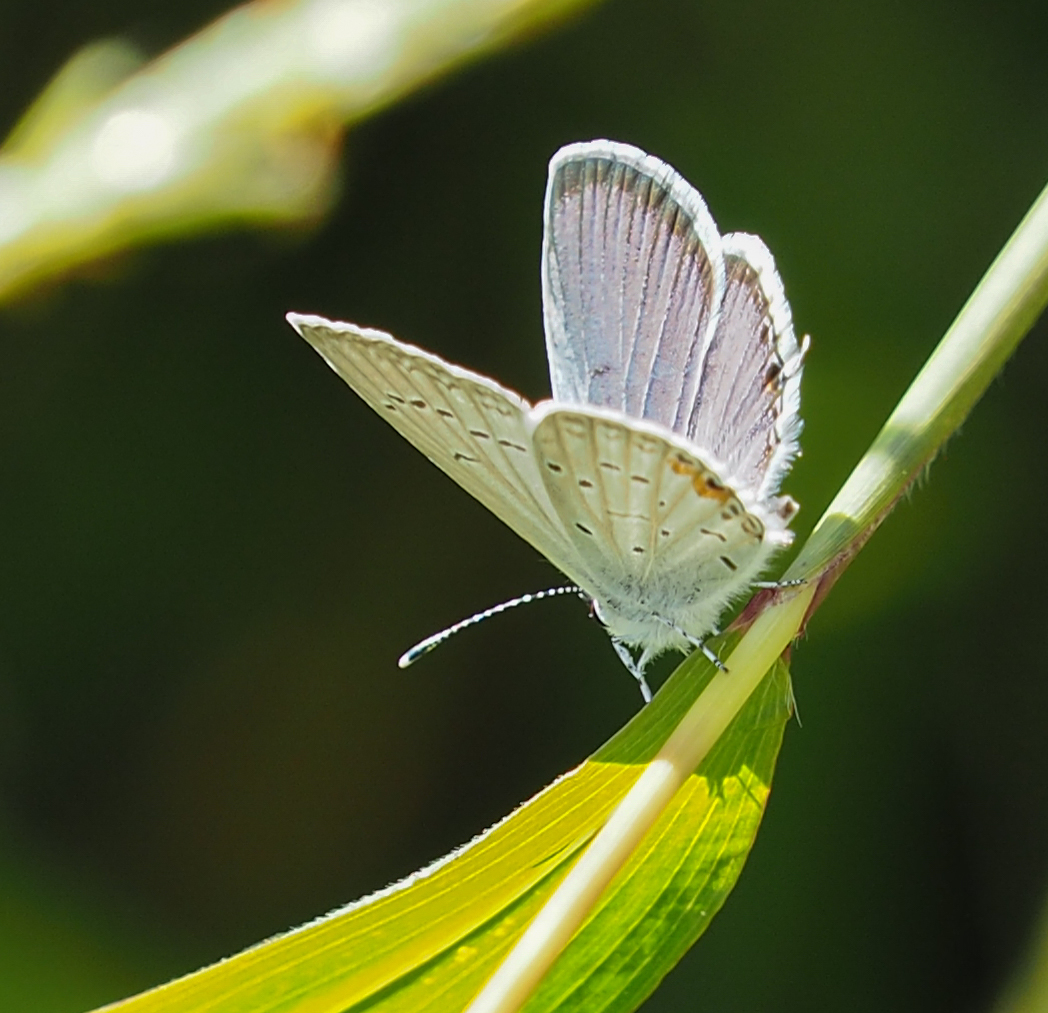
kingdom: Animalia
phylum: Arthropoda
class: Insecta
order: Lepidoptera
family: Lycaenidae
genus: Elkalyce
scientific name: Elkalyce comyntas
